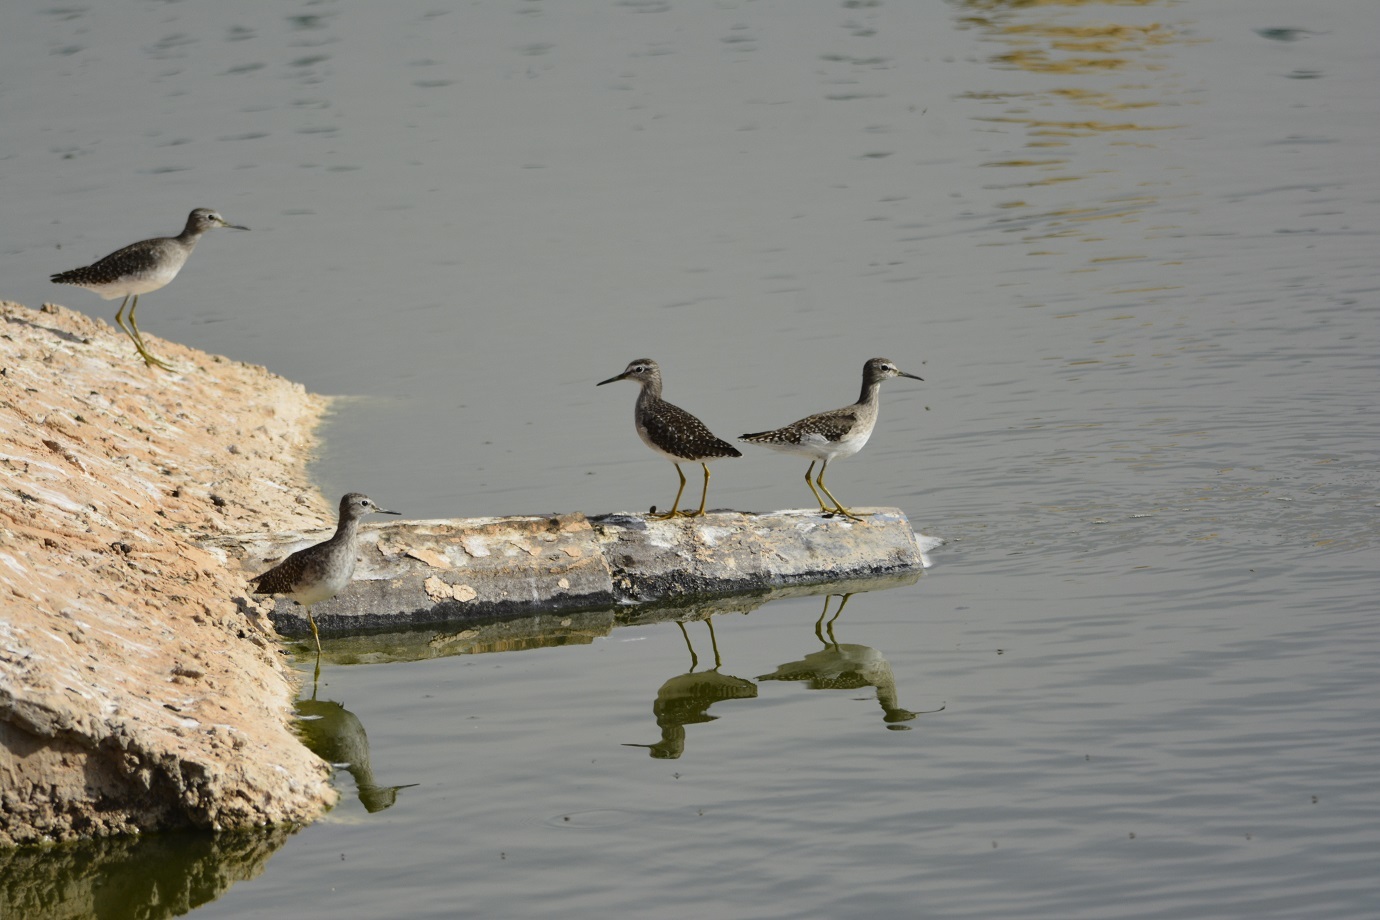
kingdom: Animalia
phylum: Chordata
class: Aves
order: Charadriiformes
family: Scolopacidae
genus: Tringa
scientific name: Tringa glareola
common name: Wood sandpiper
